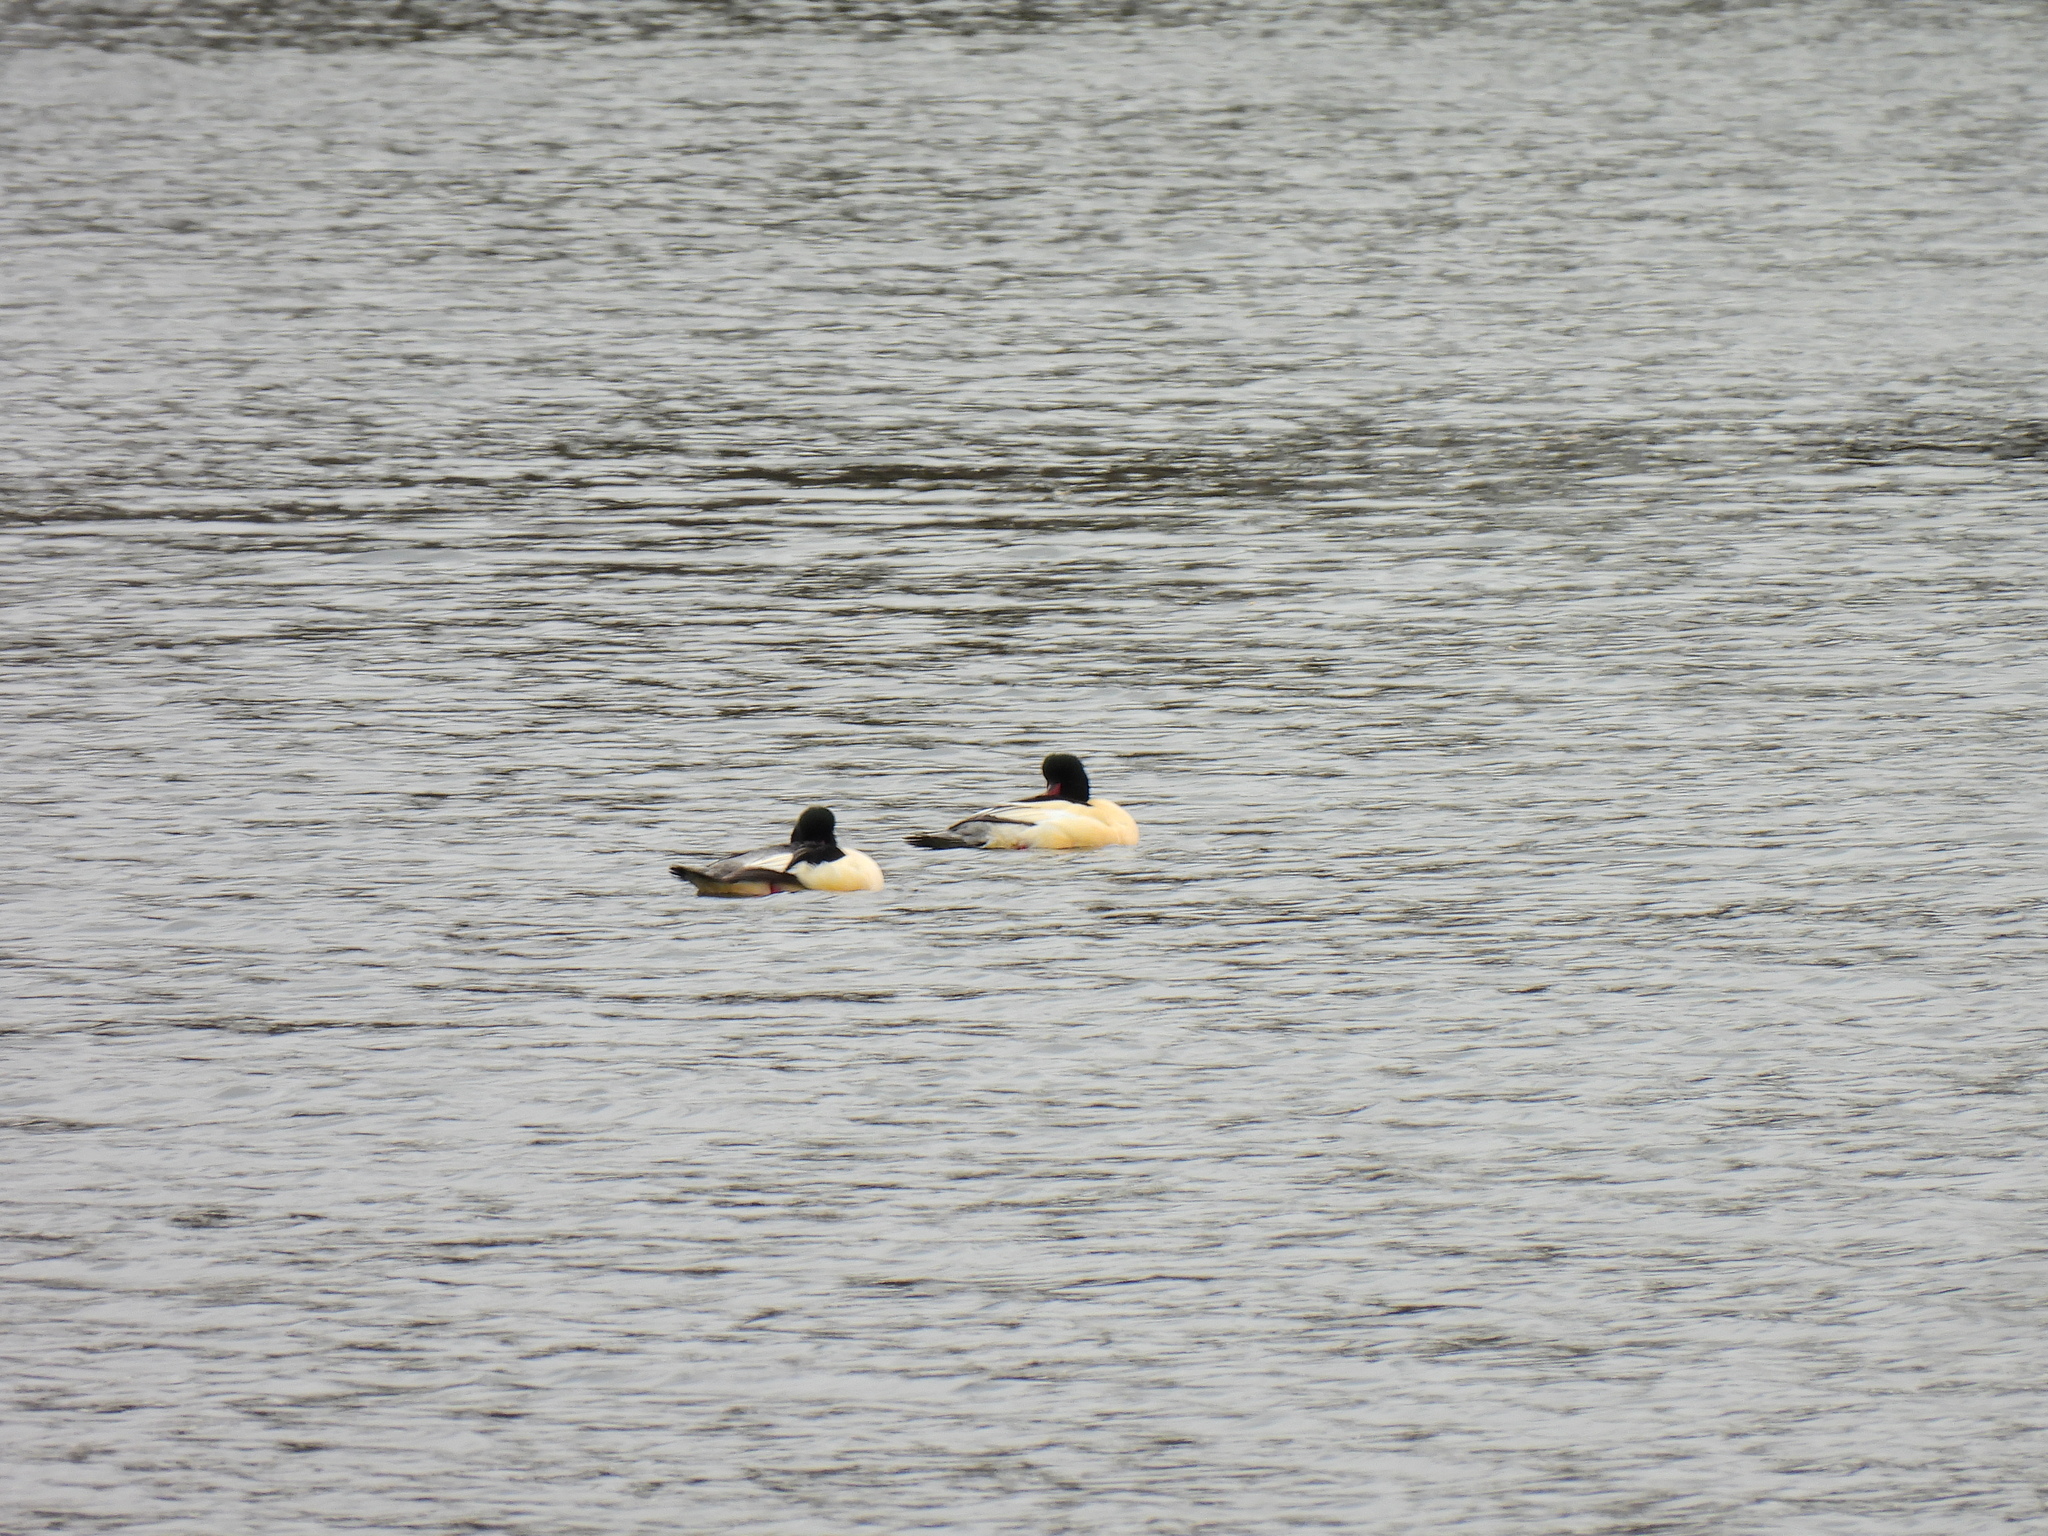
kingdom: Animalia
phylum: Chordata
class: Aves
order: Anseriformes
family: Anatidae
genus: Mergus
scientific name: Mergus merganser
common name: Common merganser
